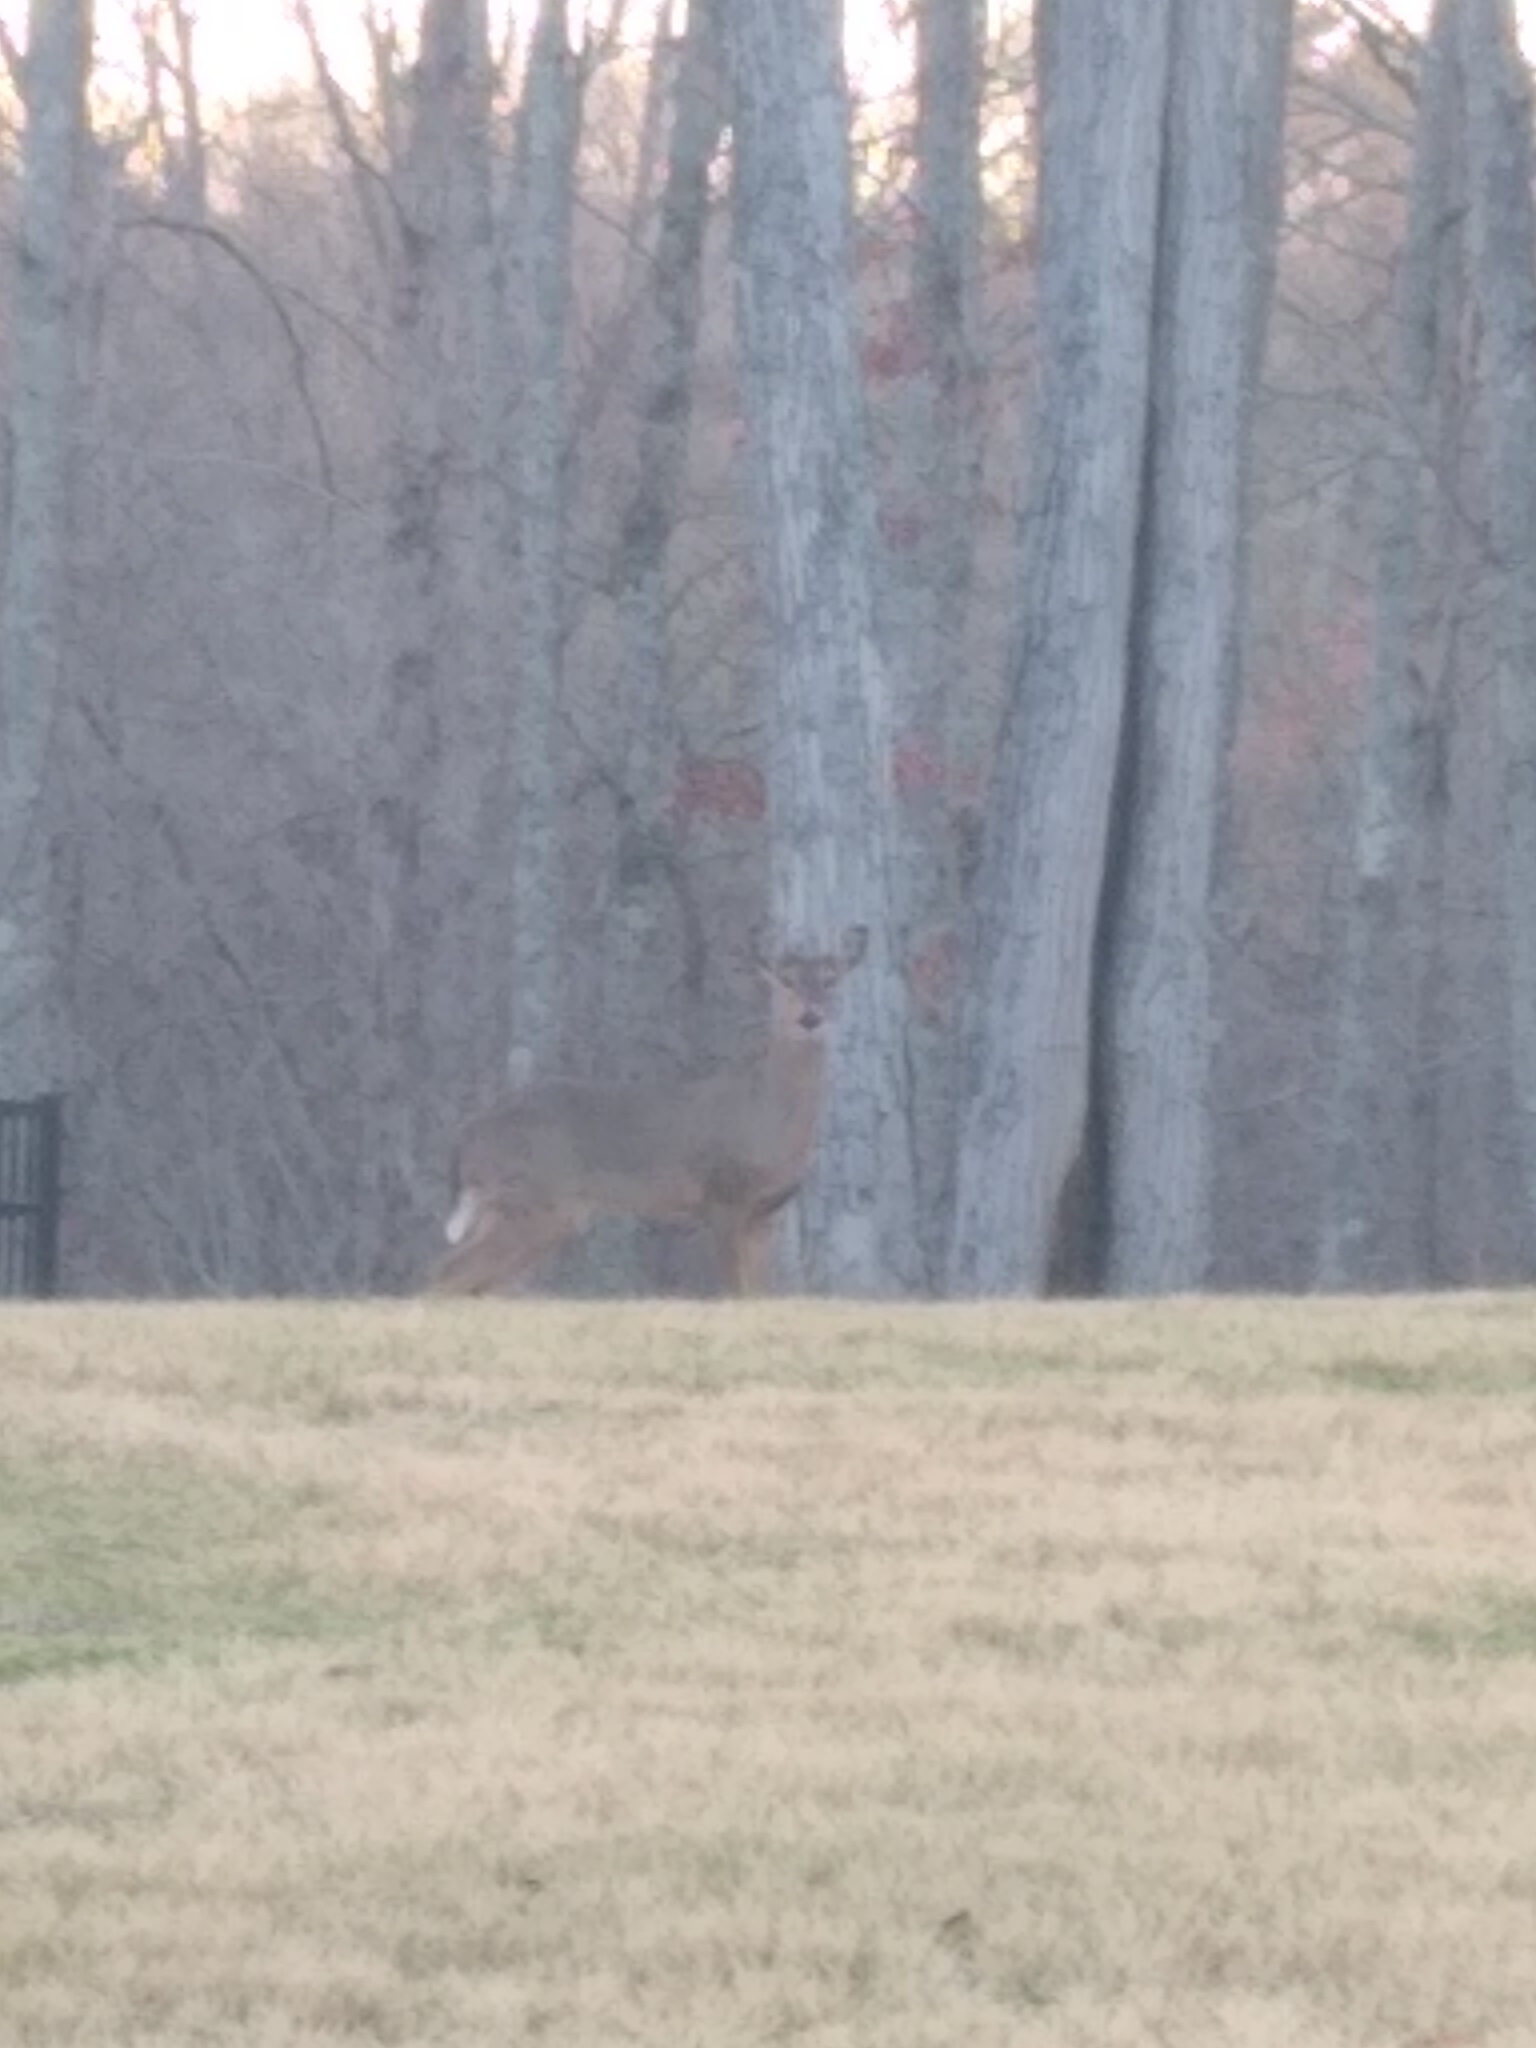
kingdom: Animalia
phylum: Chordata
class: Mammalia
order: Artiodactyla
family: Cervidae
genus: Odocoileus
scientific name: Odocoileus virginianus
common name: White-tailed deer
